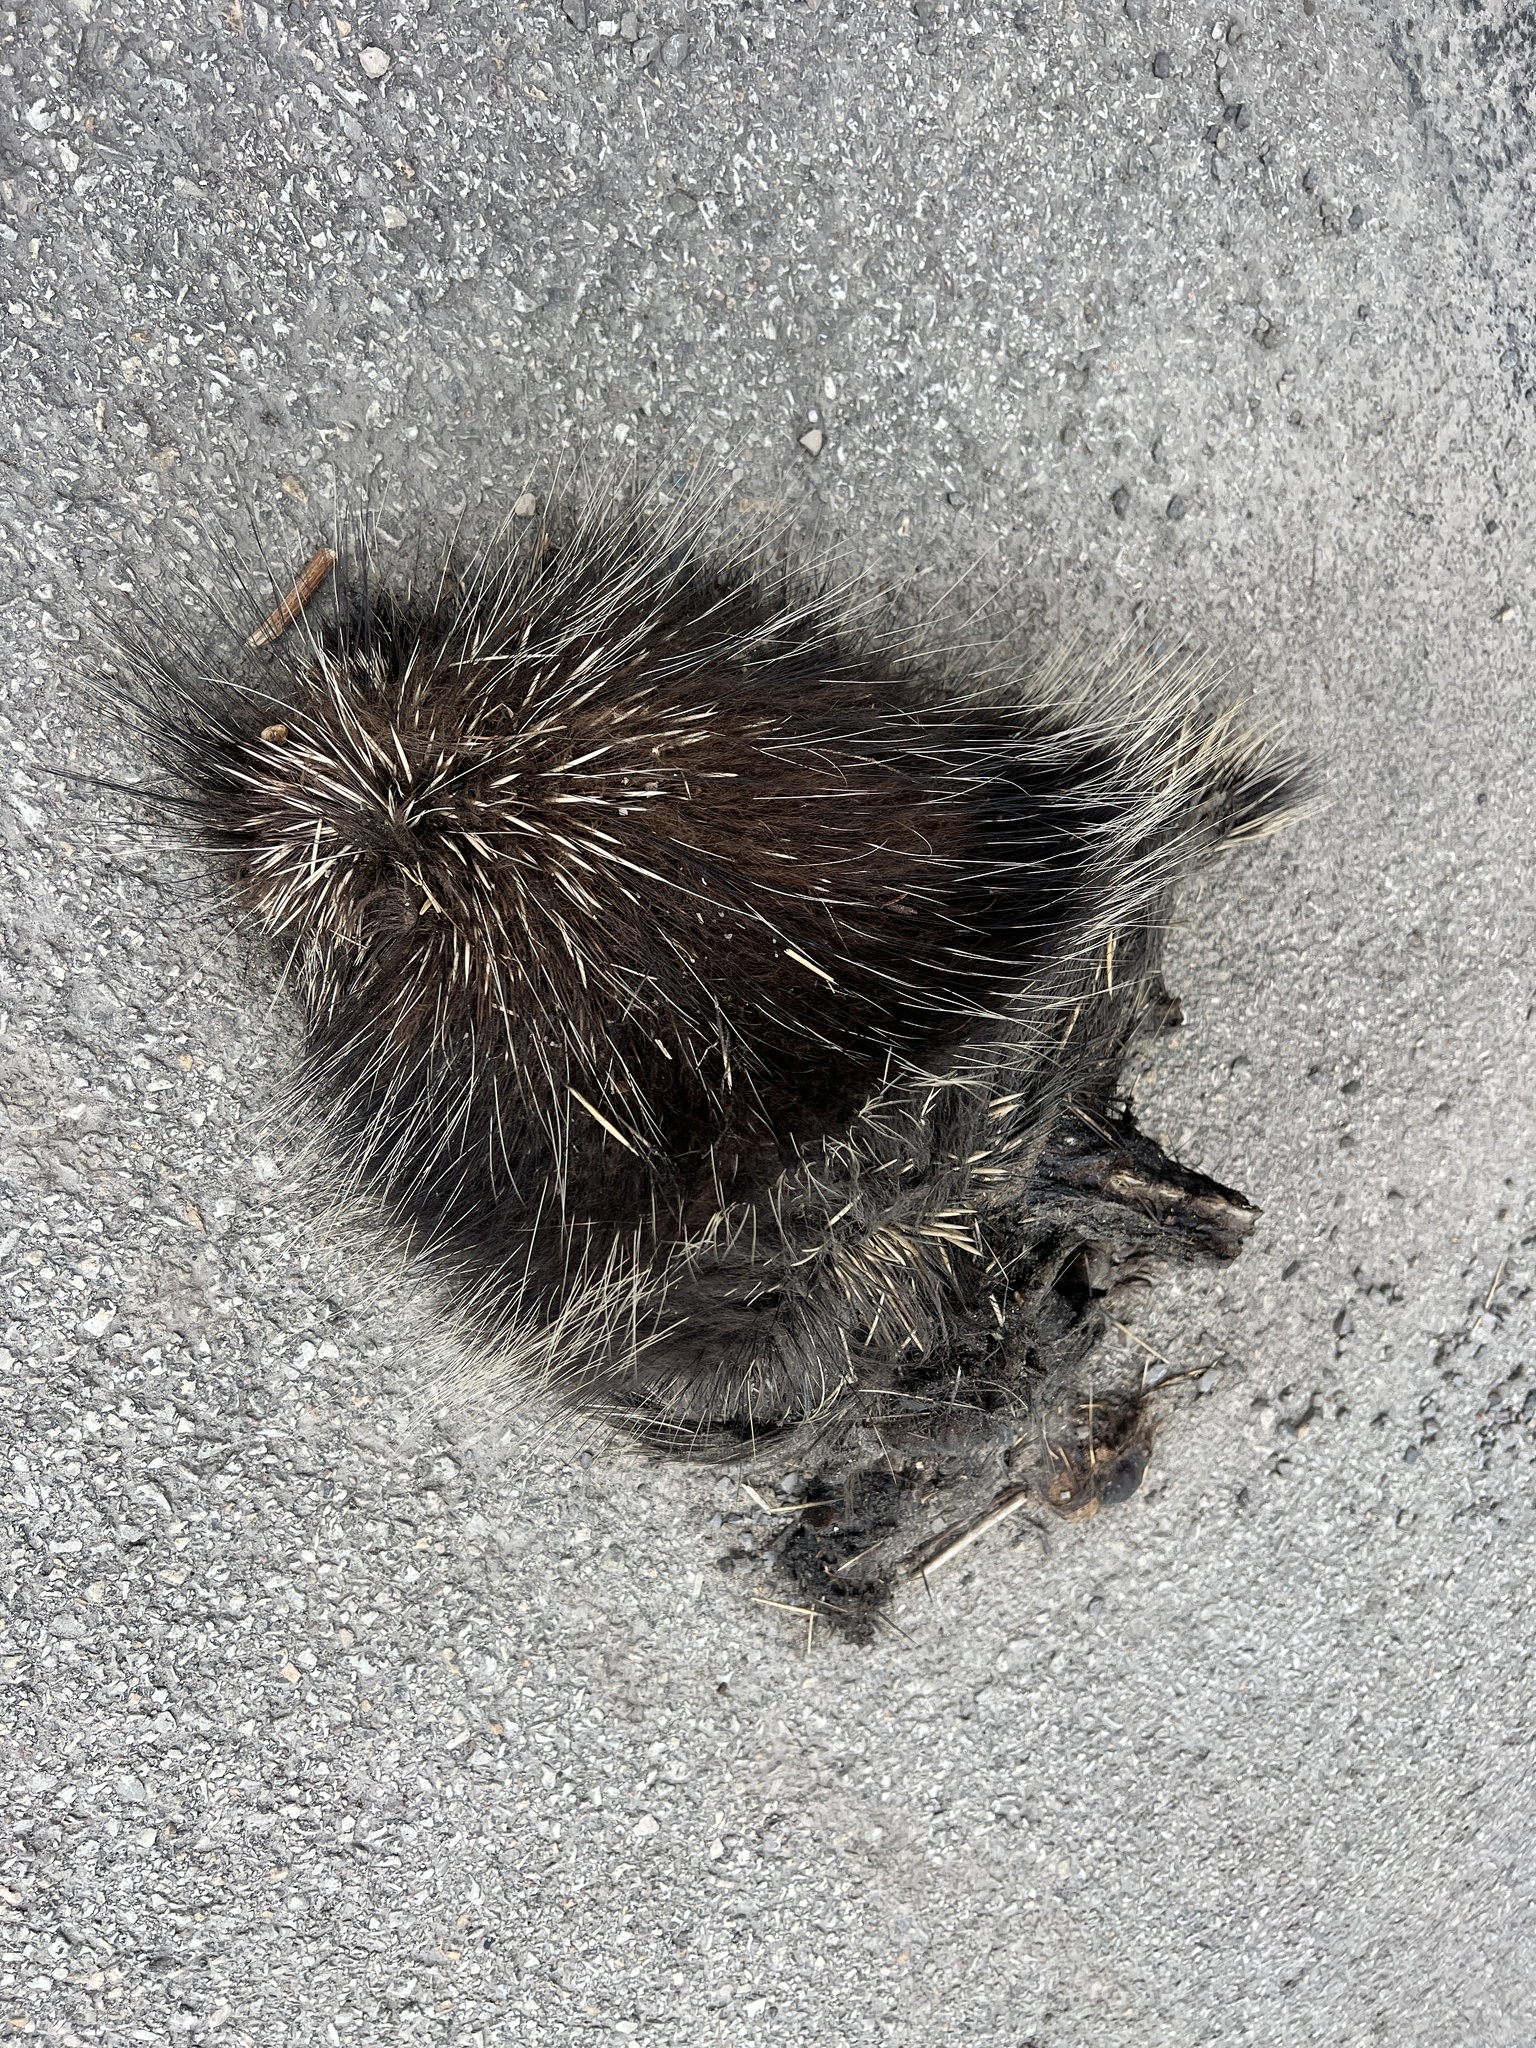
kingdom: Animalia
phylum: Chordata
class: Mammalia
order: Rodentia
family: Erethizontidae
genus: Erethizon
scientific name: Erethizon dorsatus
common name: North american porcupine
